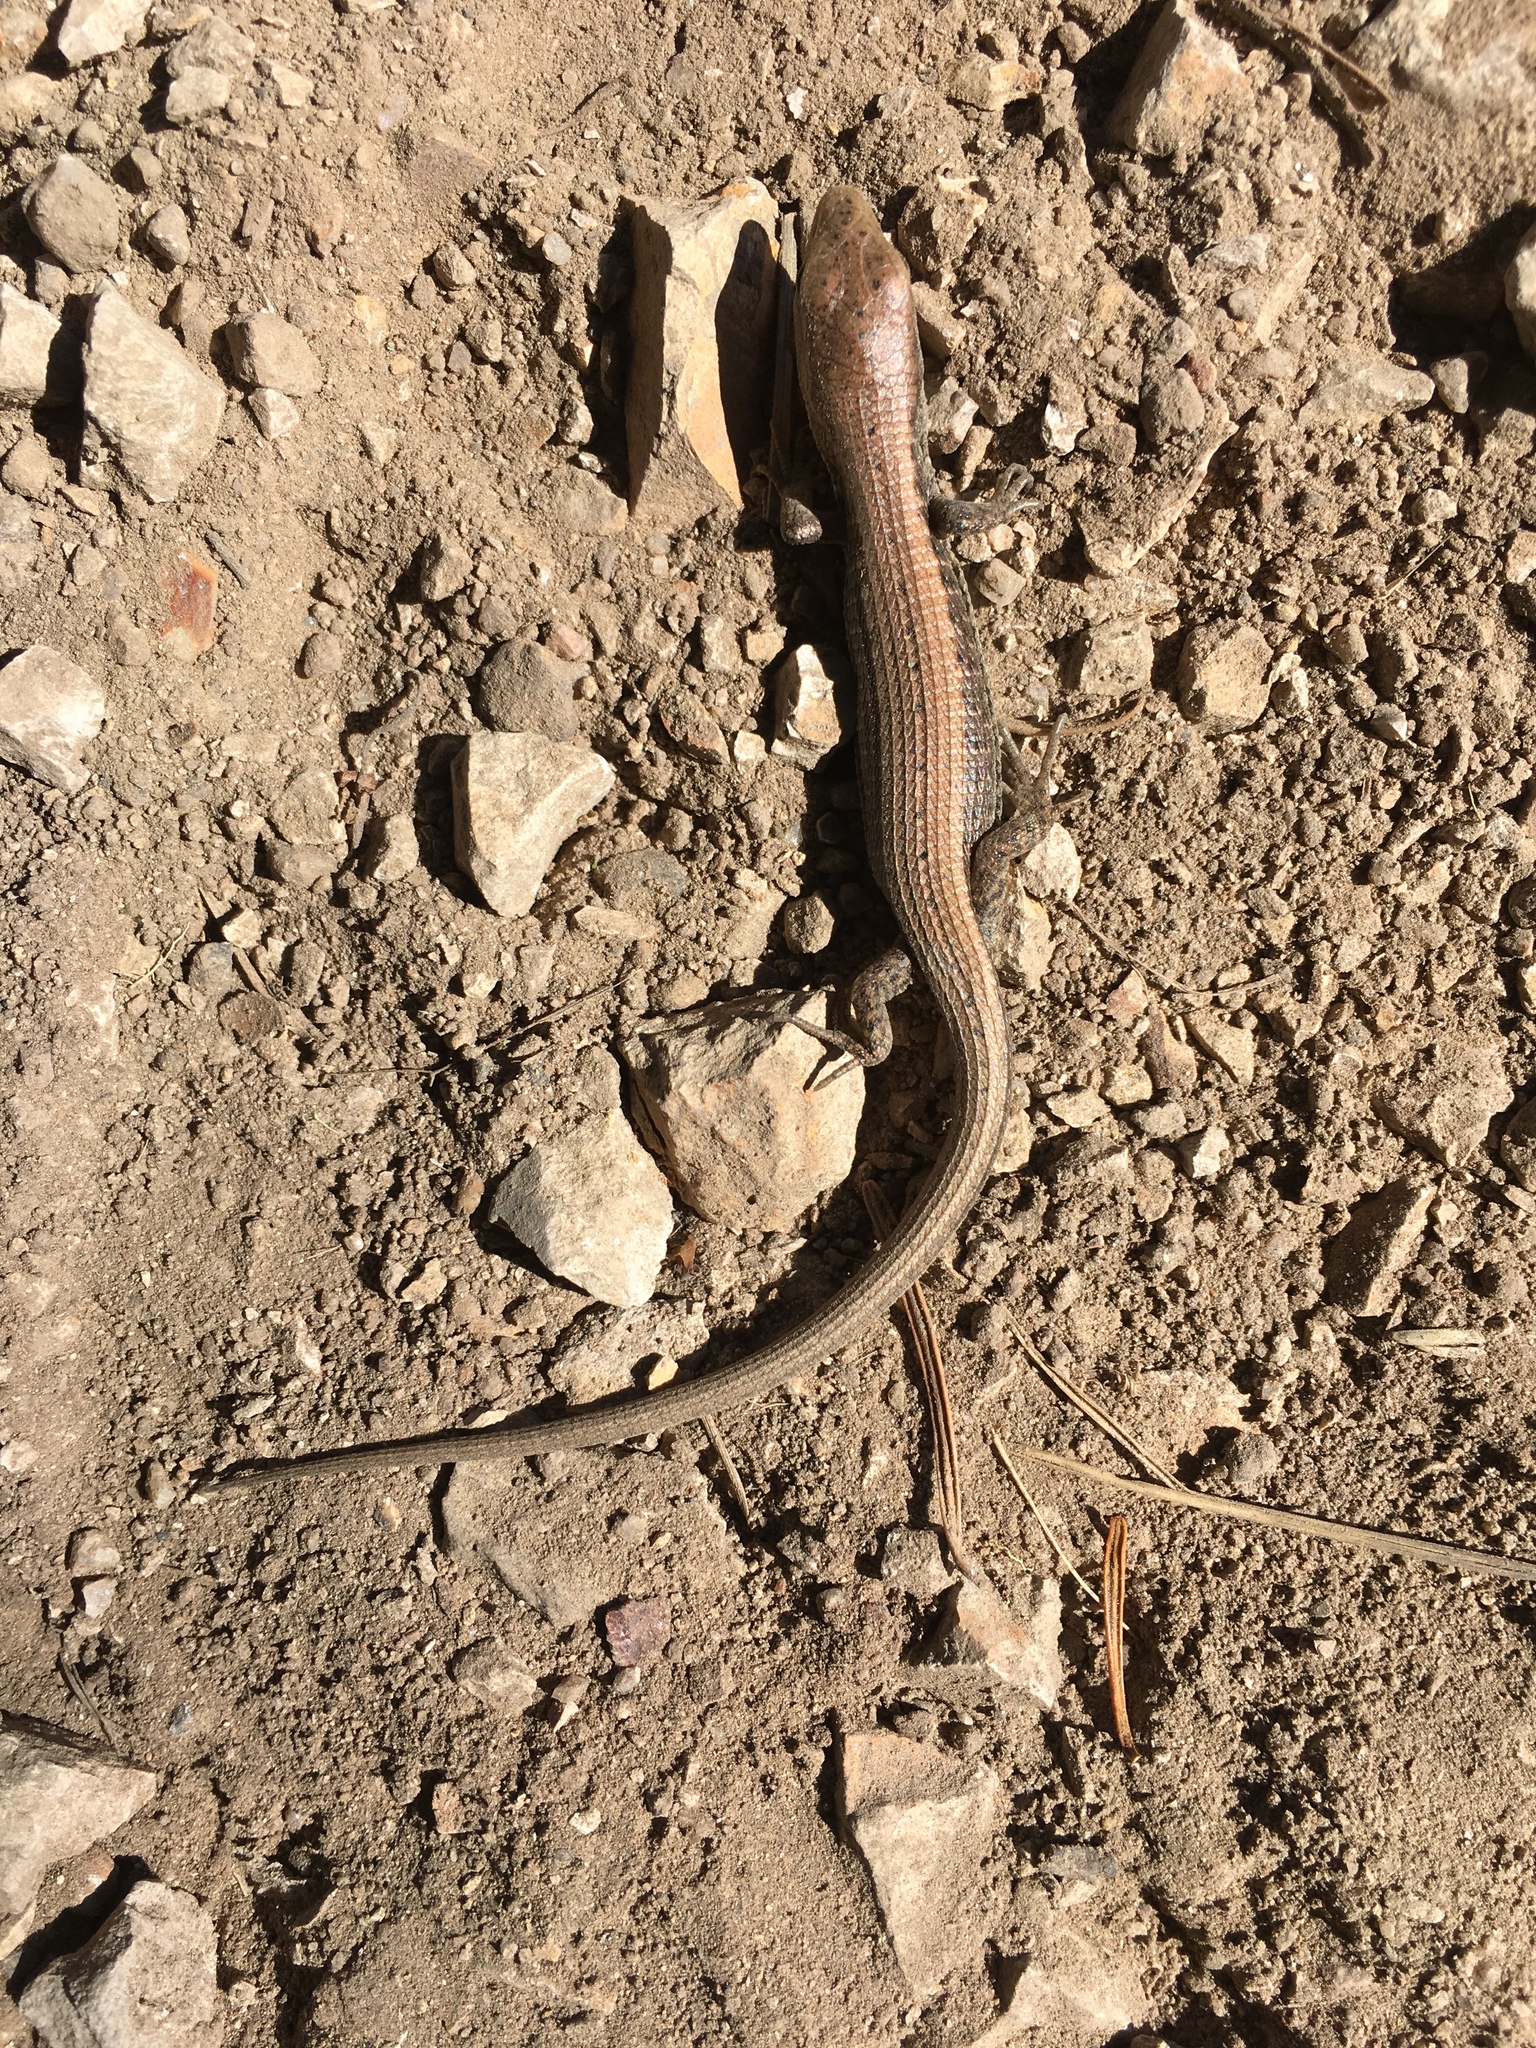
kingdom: Animalia
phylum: Chordata
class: Squamata
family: Anguidae
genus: Elgaria
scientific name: Elgaria coerulea
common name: Northern alligator lizard
